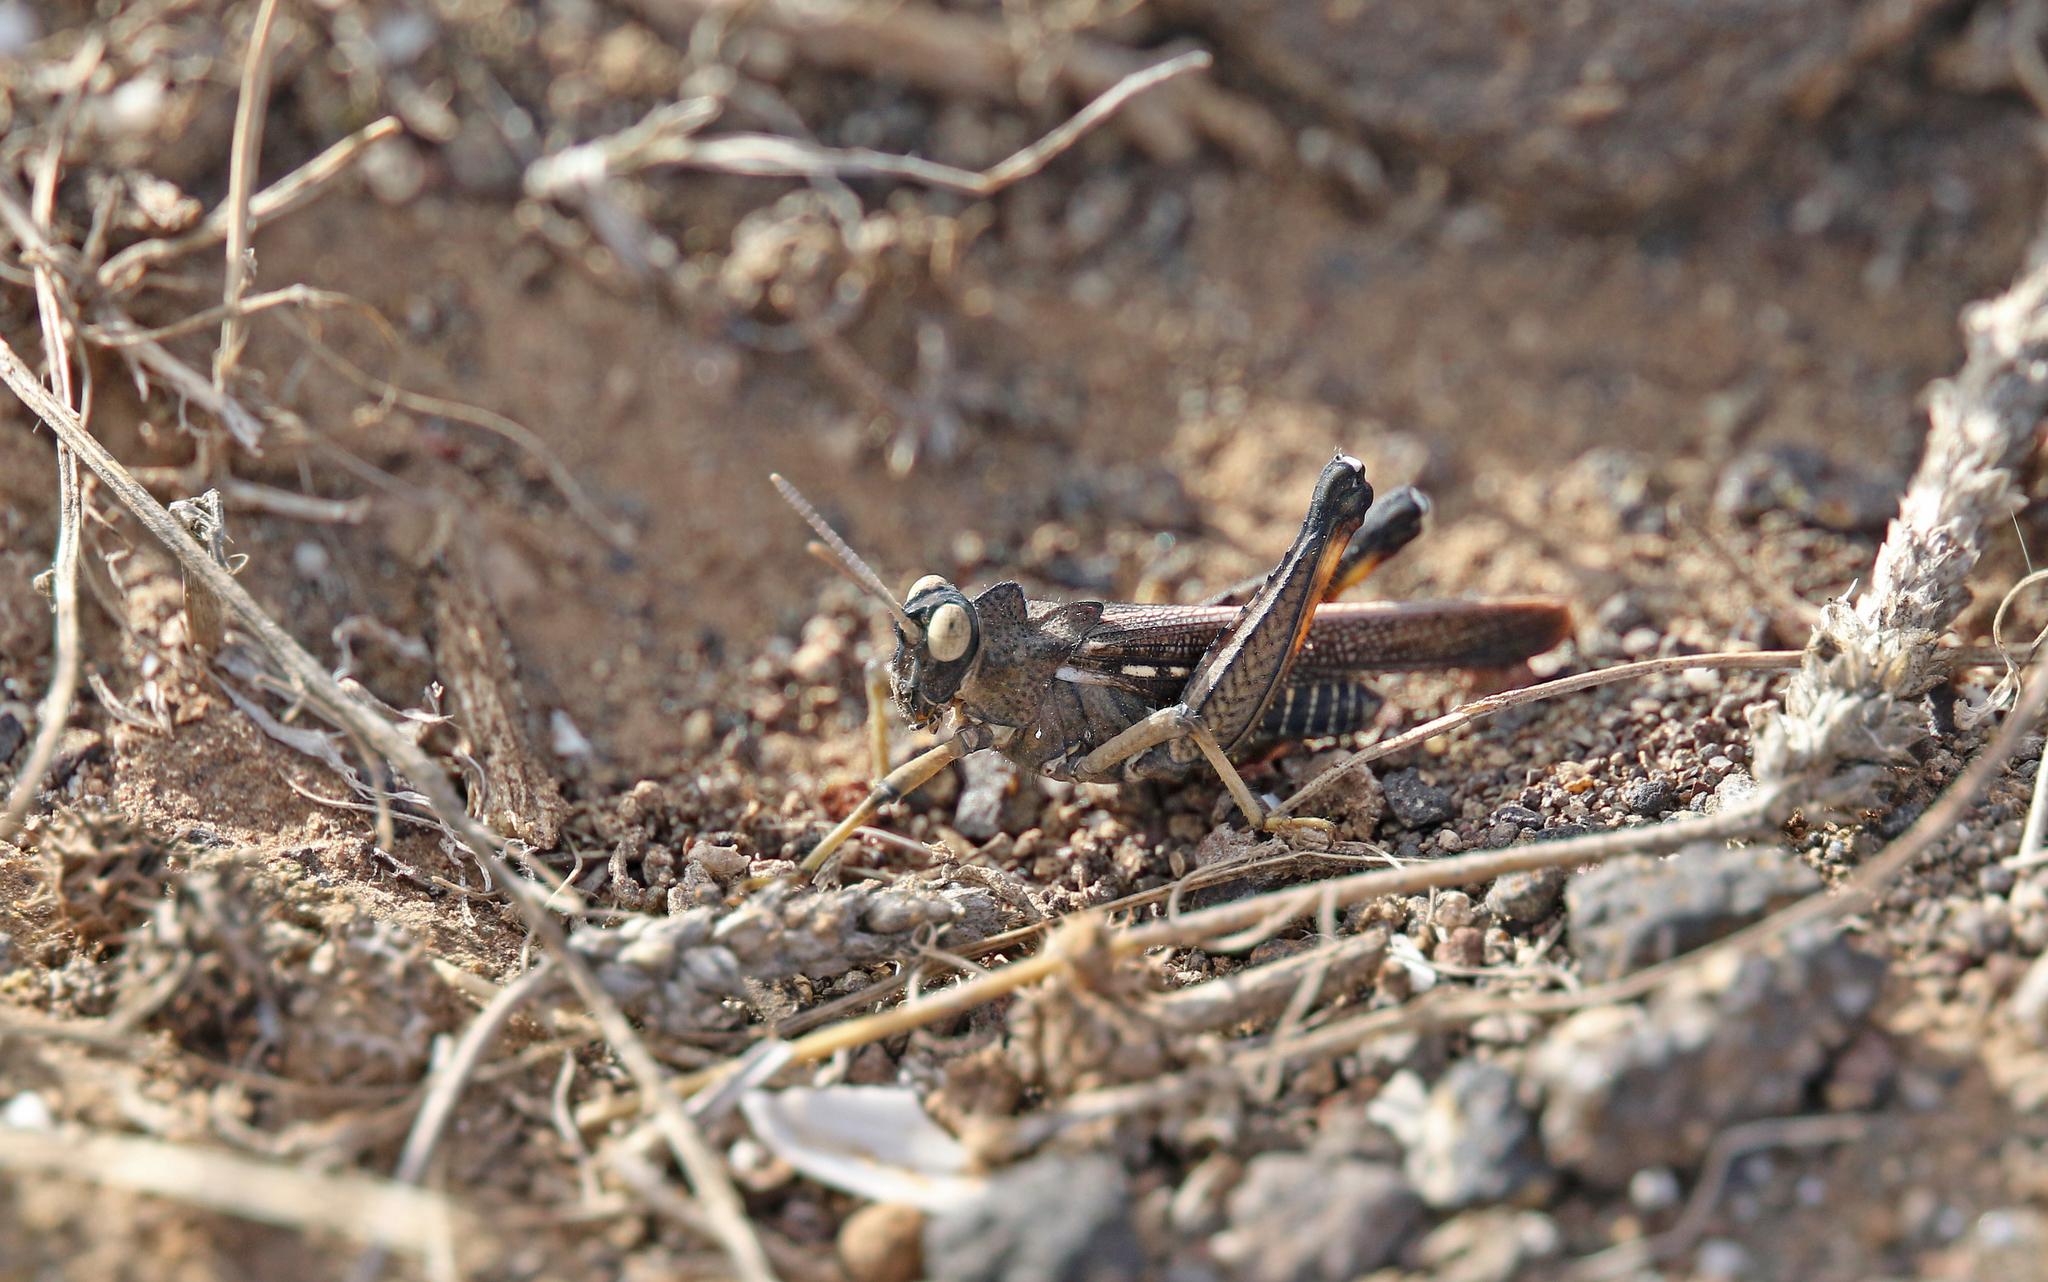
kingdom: Animalia
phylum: Arthropoda
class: Insecta
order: Orthoptera
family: Dericorythidae
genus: Dericorys
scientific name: Dericorys lobata
